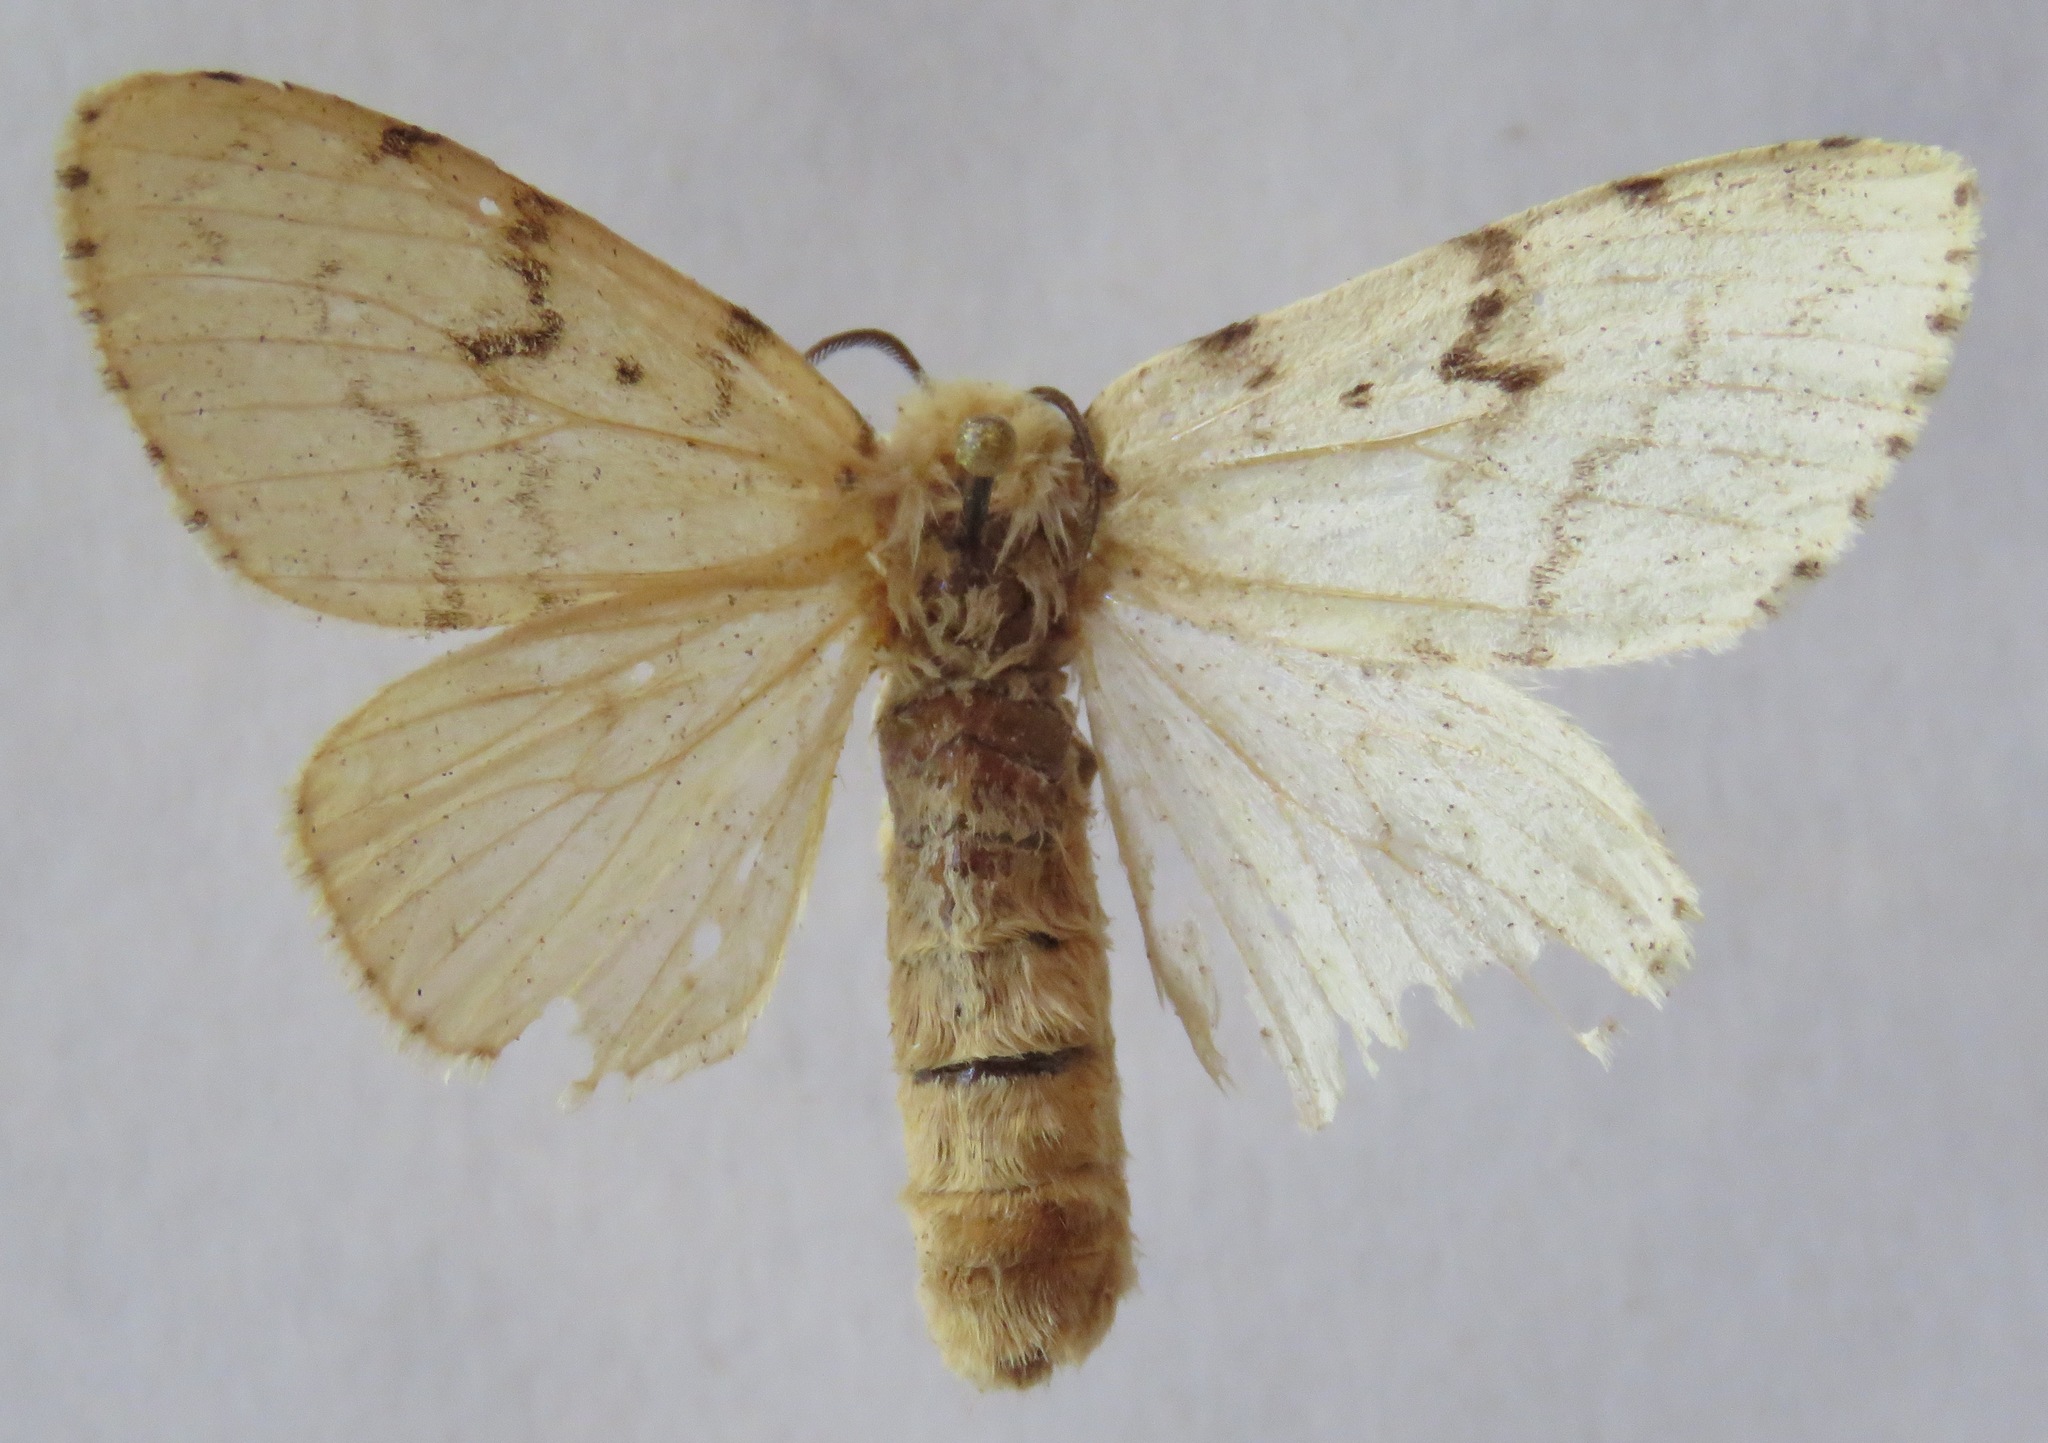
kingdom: Animalia
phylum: Arthropoda
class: Insecta
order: Lepidoptera
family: Erebidae
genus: Lymantria
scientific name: Lymantria dispar
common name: Gypsy moth
